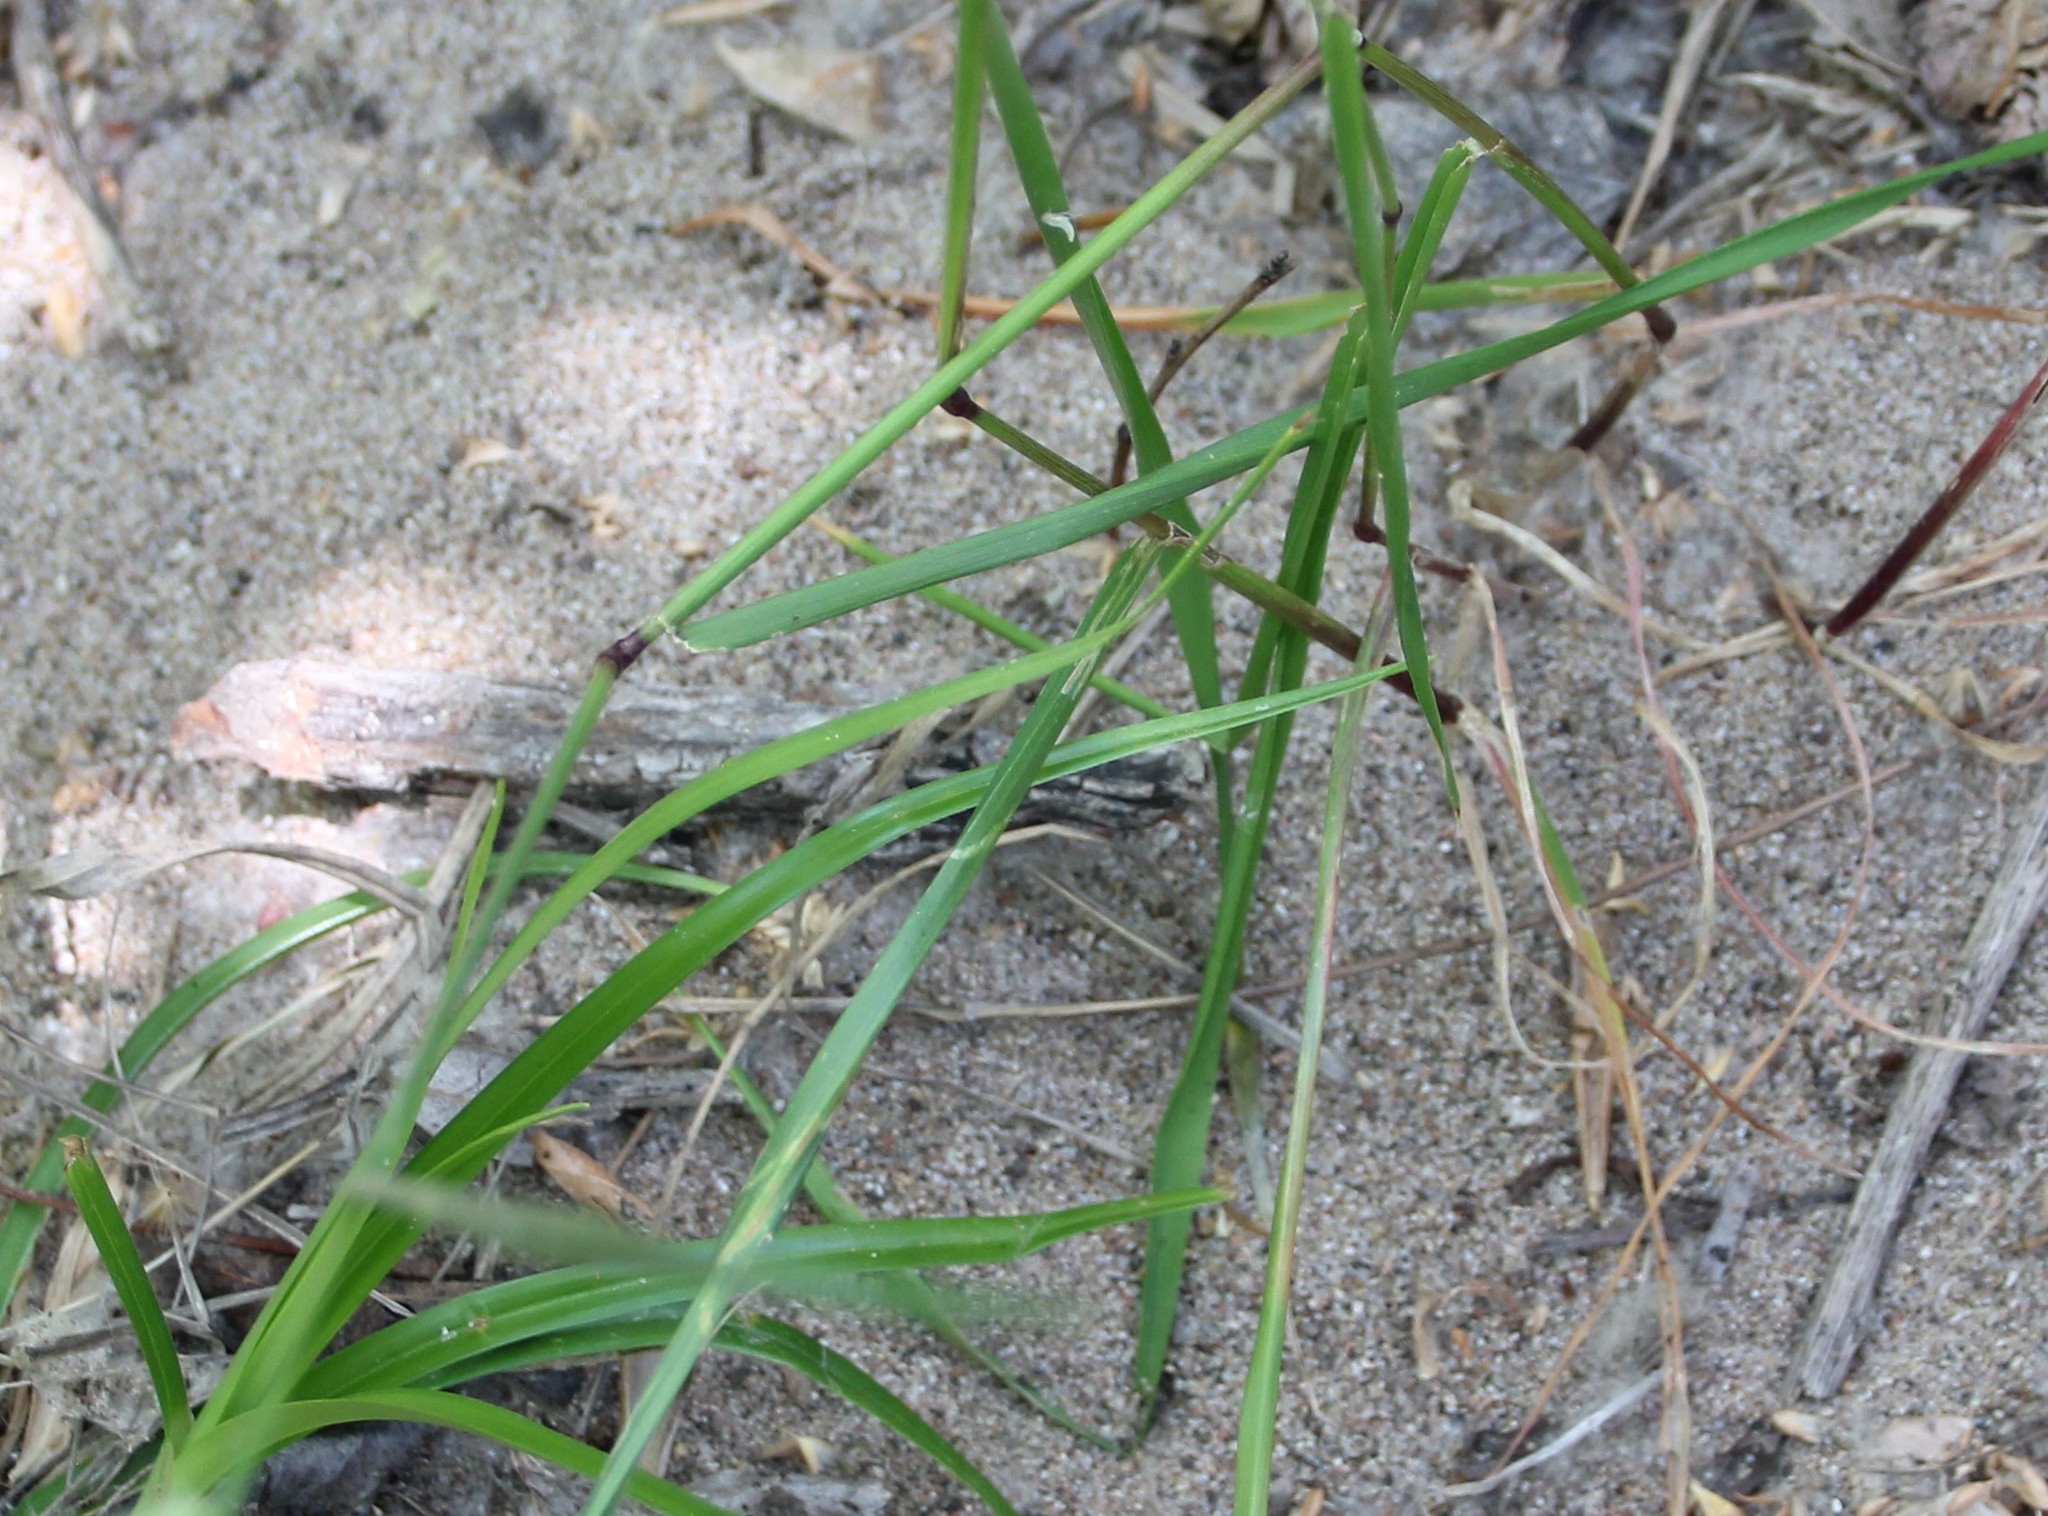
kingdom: Plantae
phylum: Tracheophyta
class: Liliopsida
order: Poales
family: Poaceae
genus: Lolium
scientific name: Lolium perenne
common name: Perennial ryegrass
